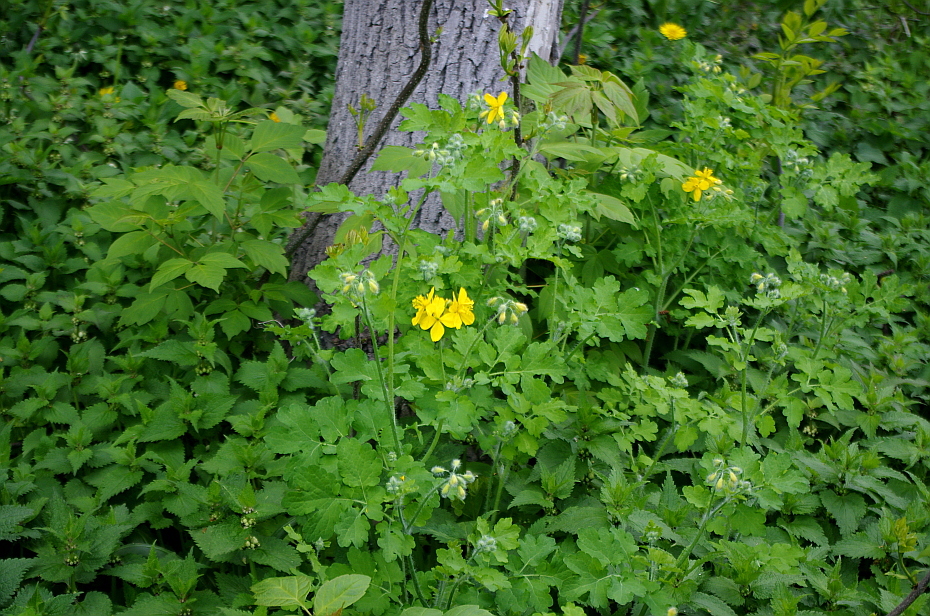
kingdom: Plantae
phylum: Tracheophyta
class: Magnoliopsida
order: Ranunculales
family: Papaveraceae
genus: Chelidonium
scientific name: Chelidonium majus
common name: Greater celandine
